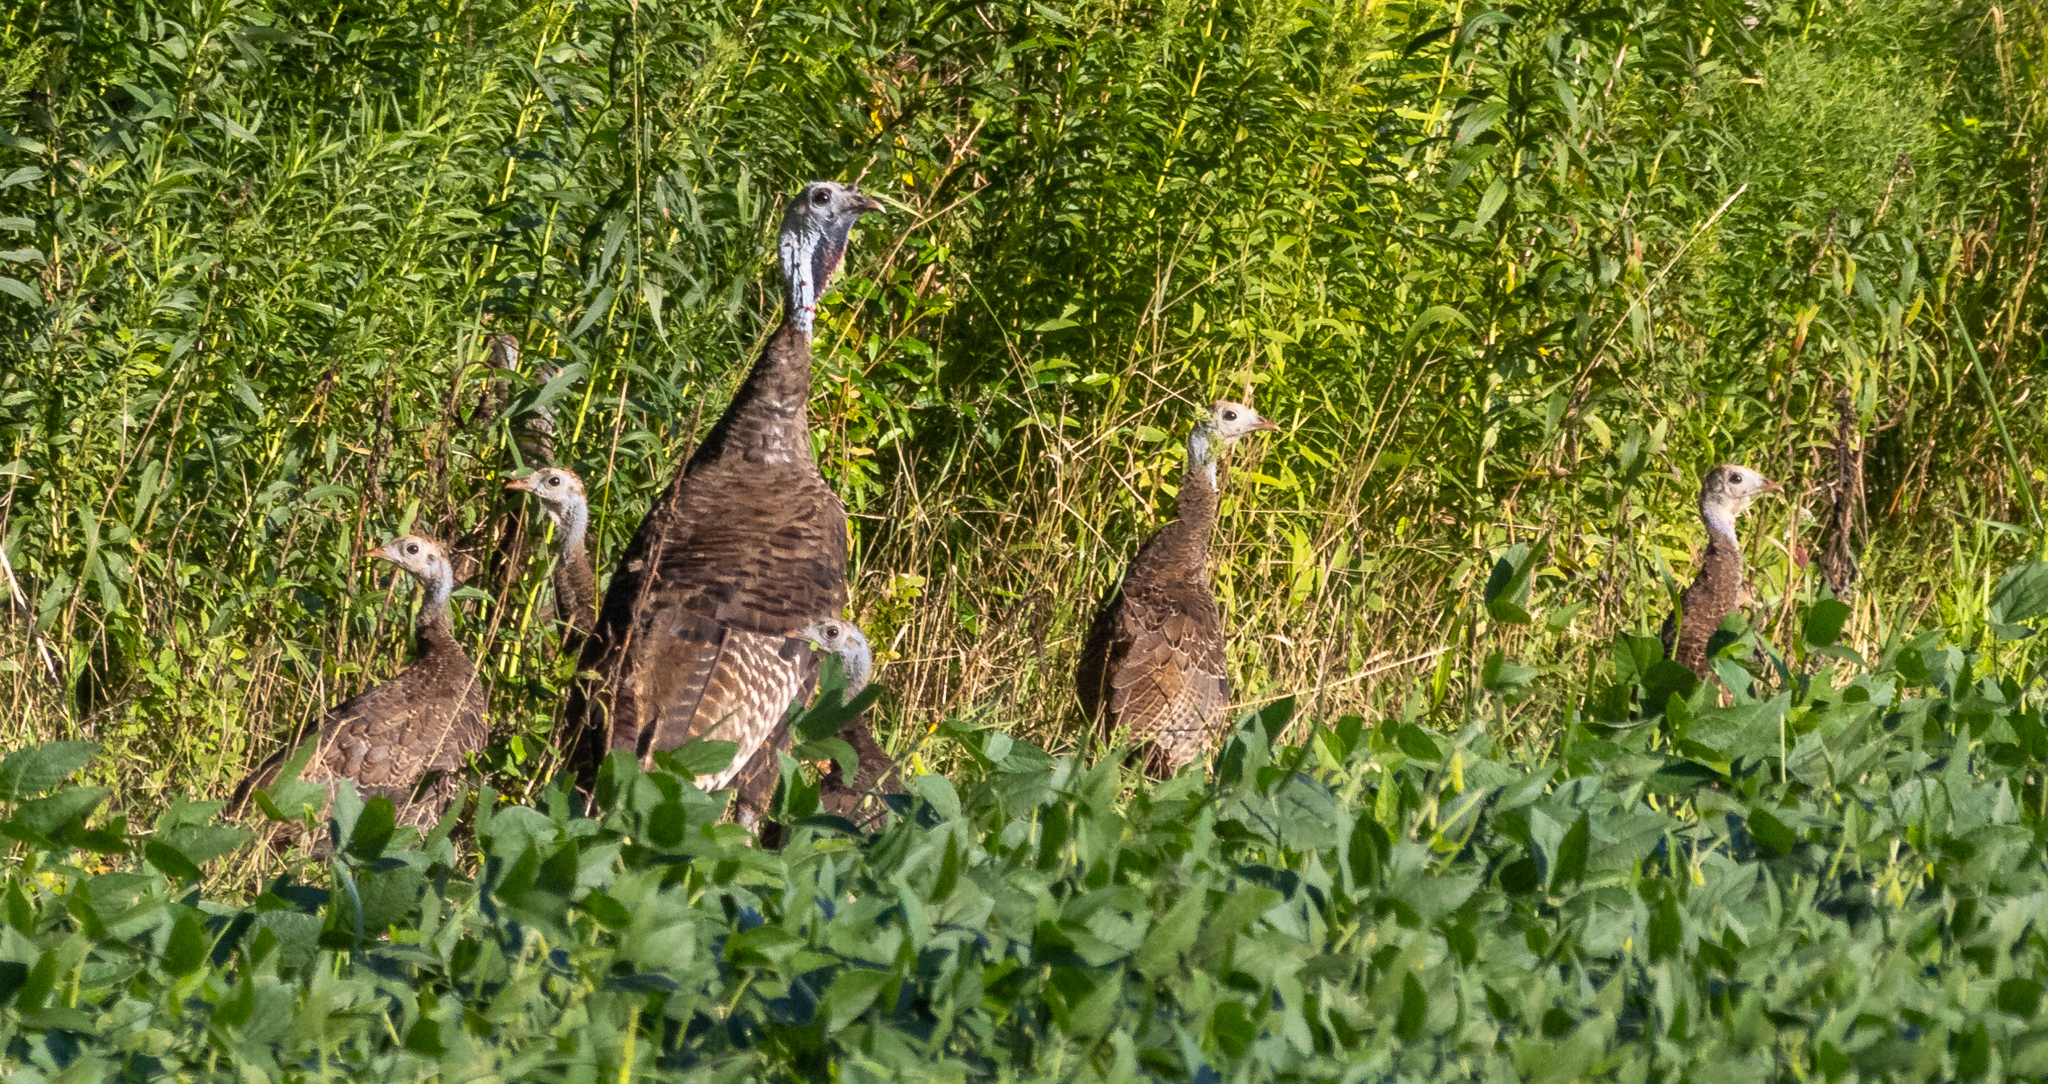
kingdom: Animalia
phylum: Chordata
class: Aves
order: Galliformes
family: Phasianidae
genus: Meleagris
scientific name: Meleagris gallopavo
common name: Wild turkey
